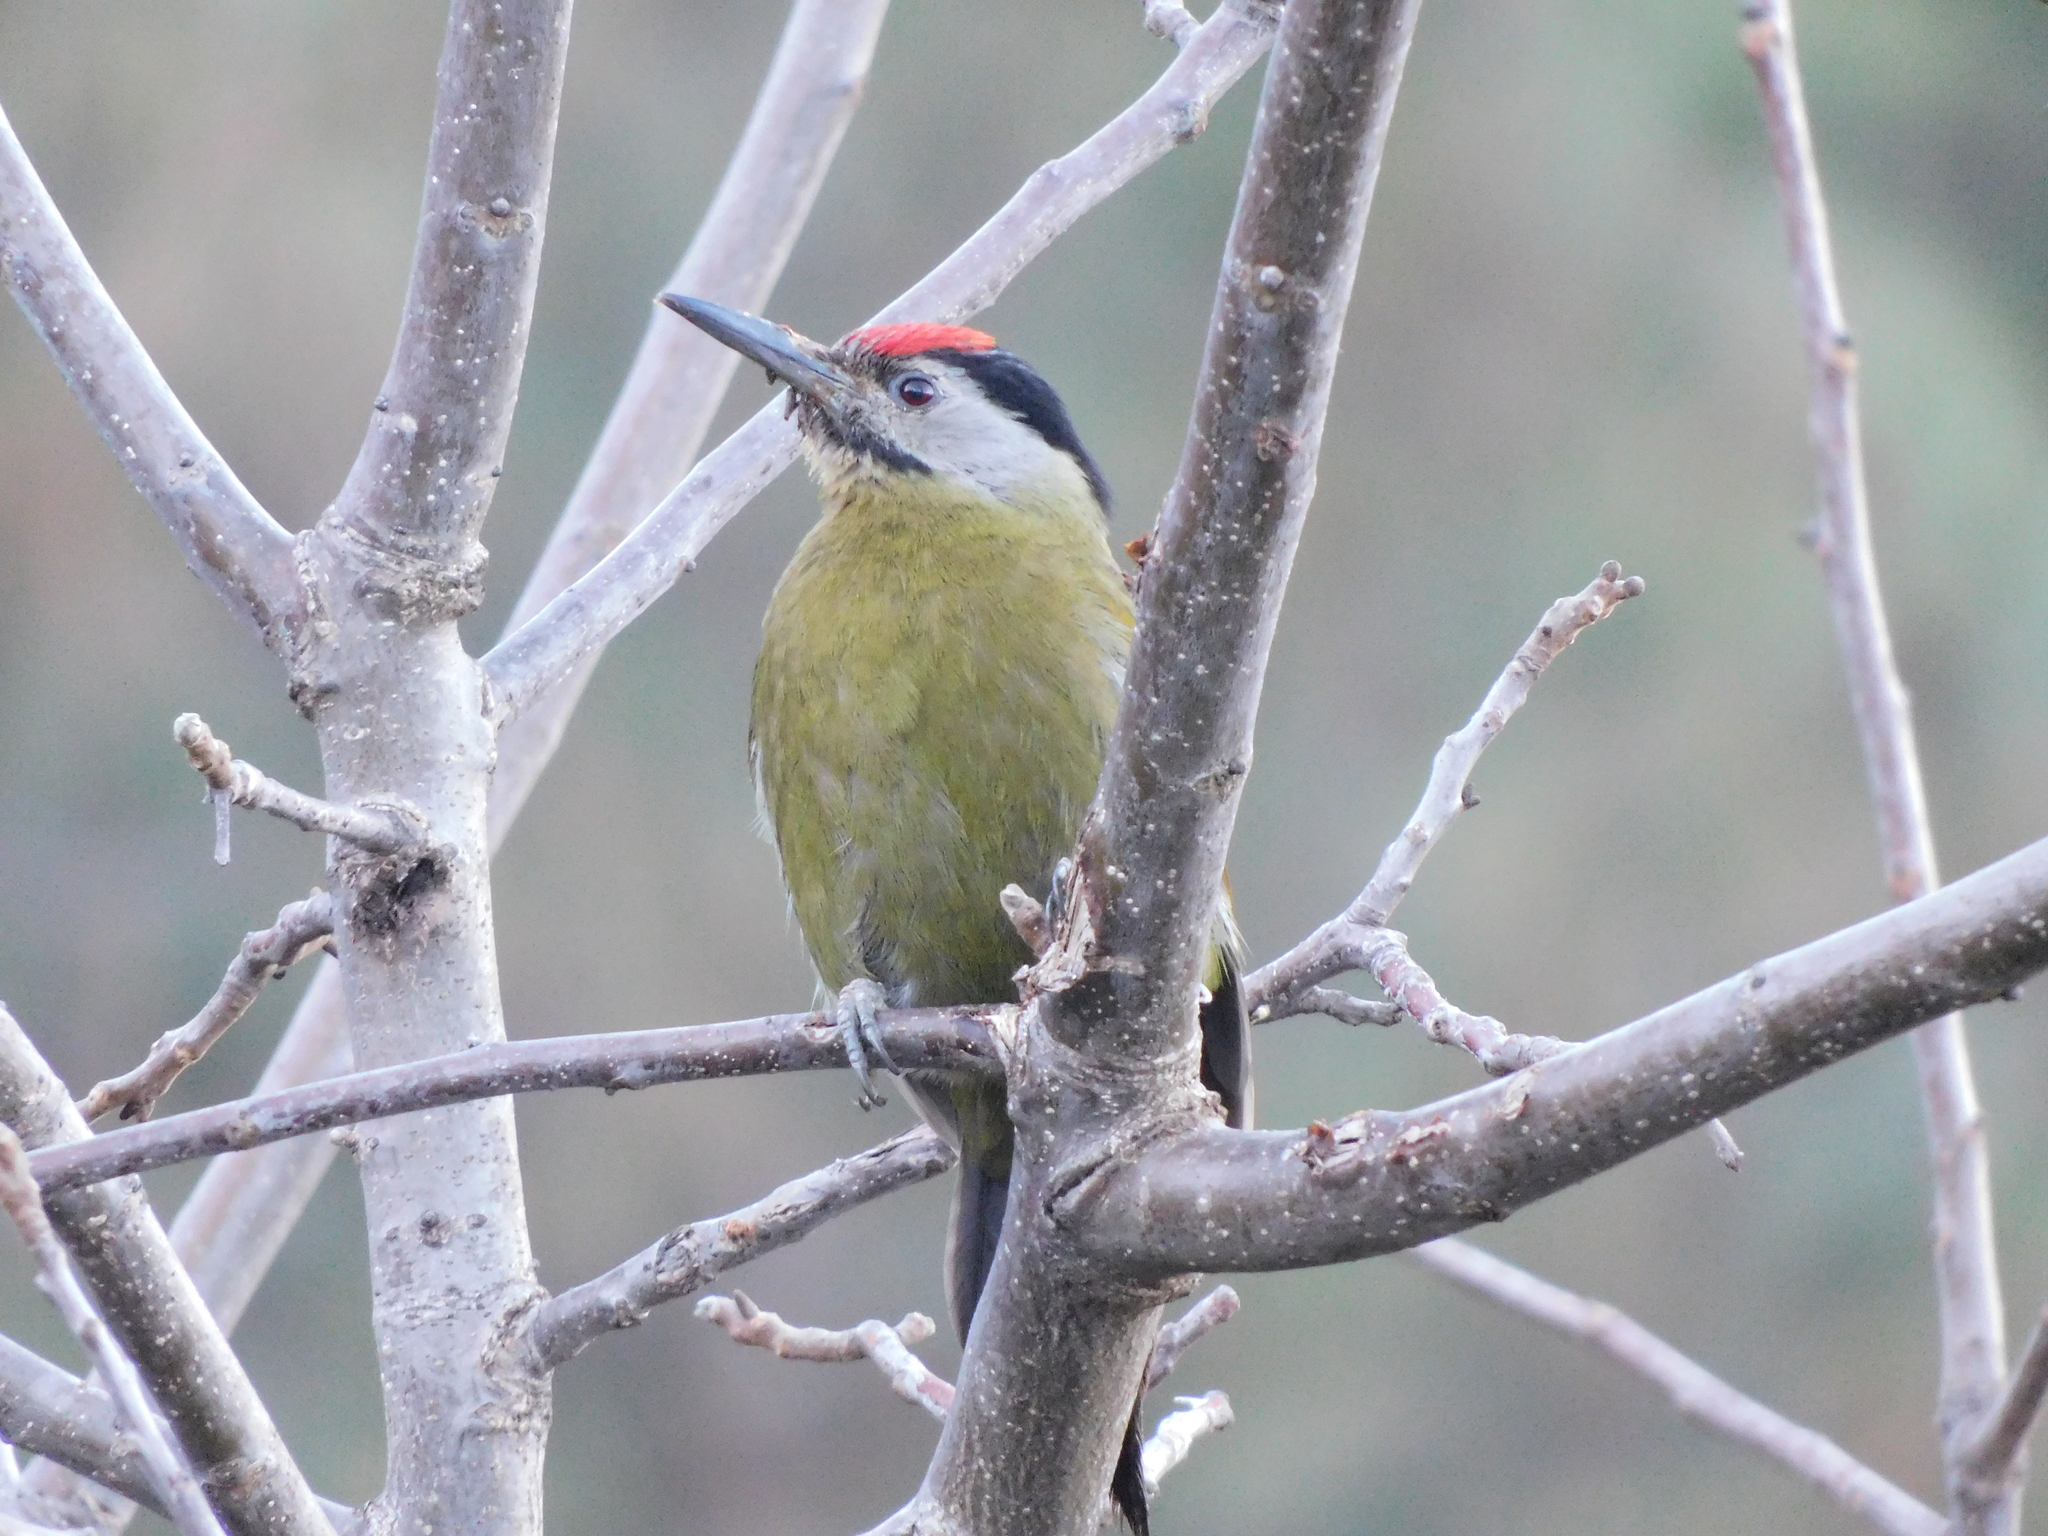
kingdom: Animalia
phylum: Chordata
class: Aves
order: Piciformes
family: Picidae
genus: Picus
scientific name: Picus canus
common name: Grey-headed woodpecker
